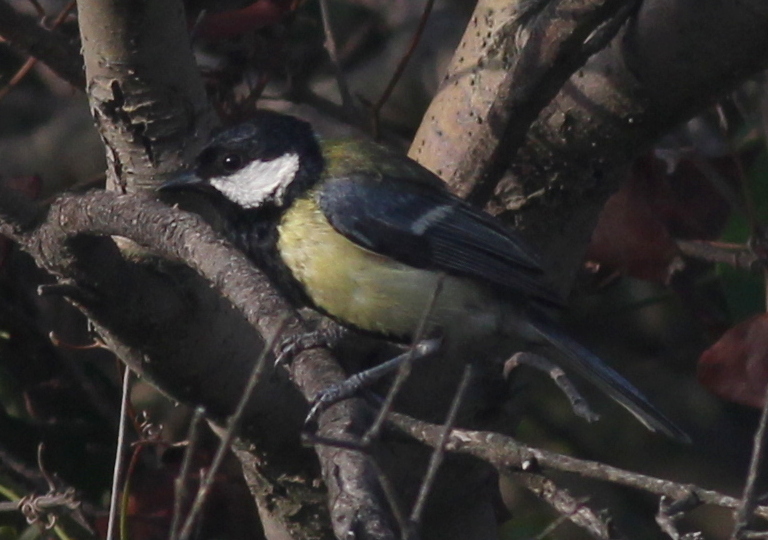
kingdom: Animalia
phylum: Chordata
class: Aves
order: Passeriformes
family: Paridae
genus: Parus
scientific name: Parus major
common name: Great tit
